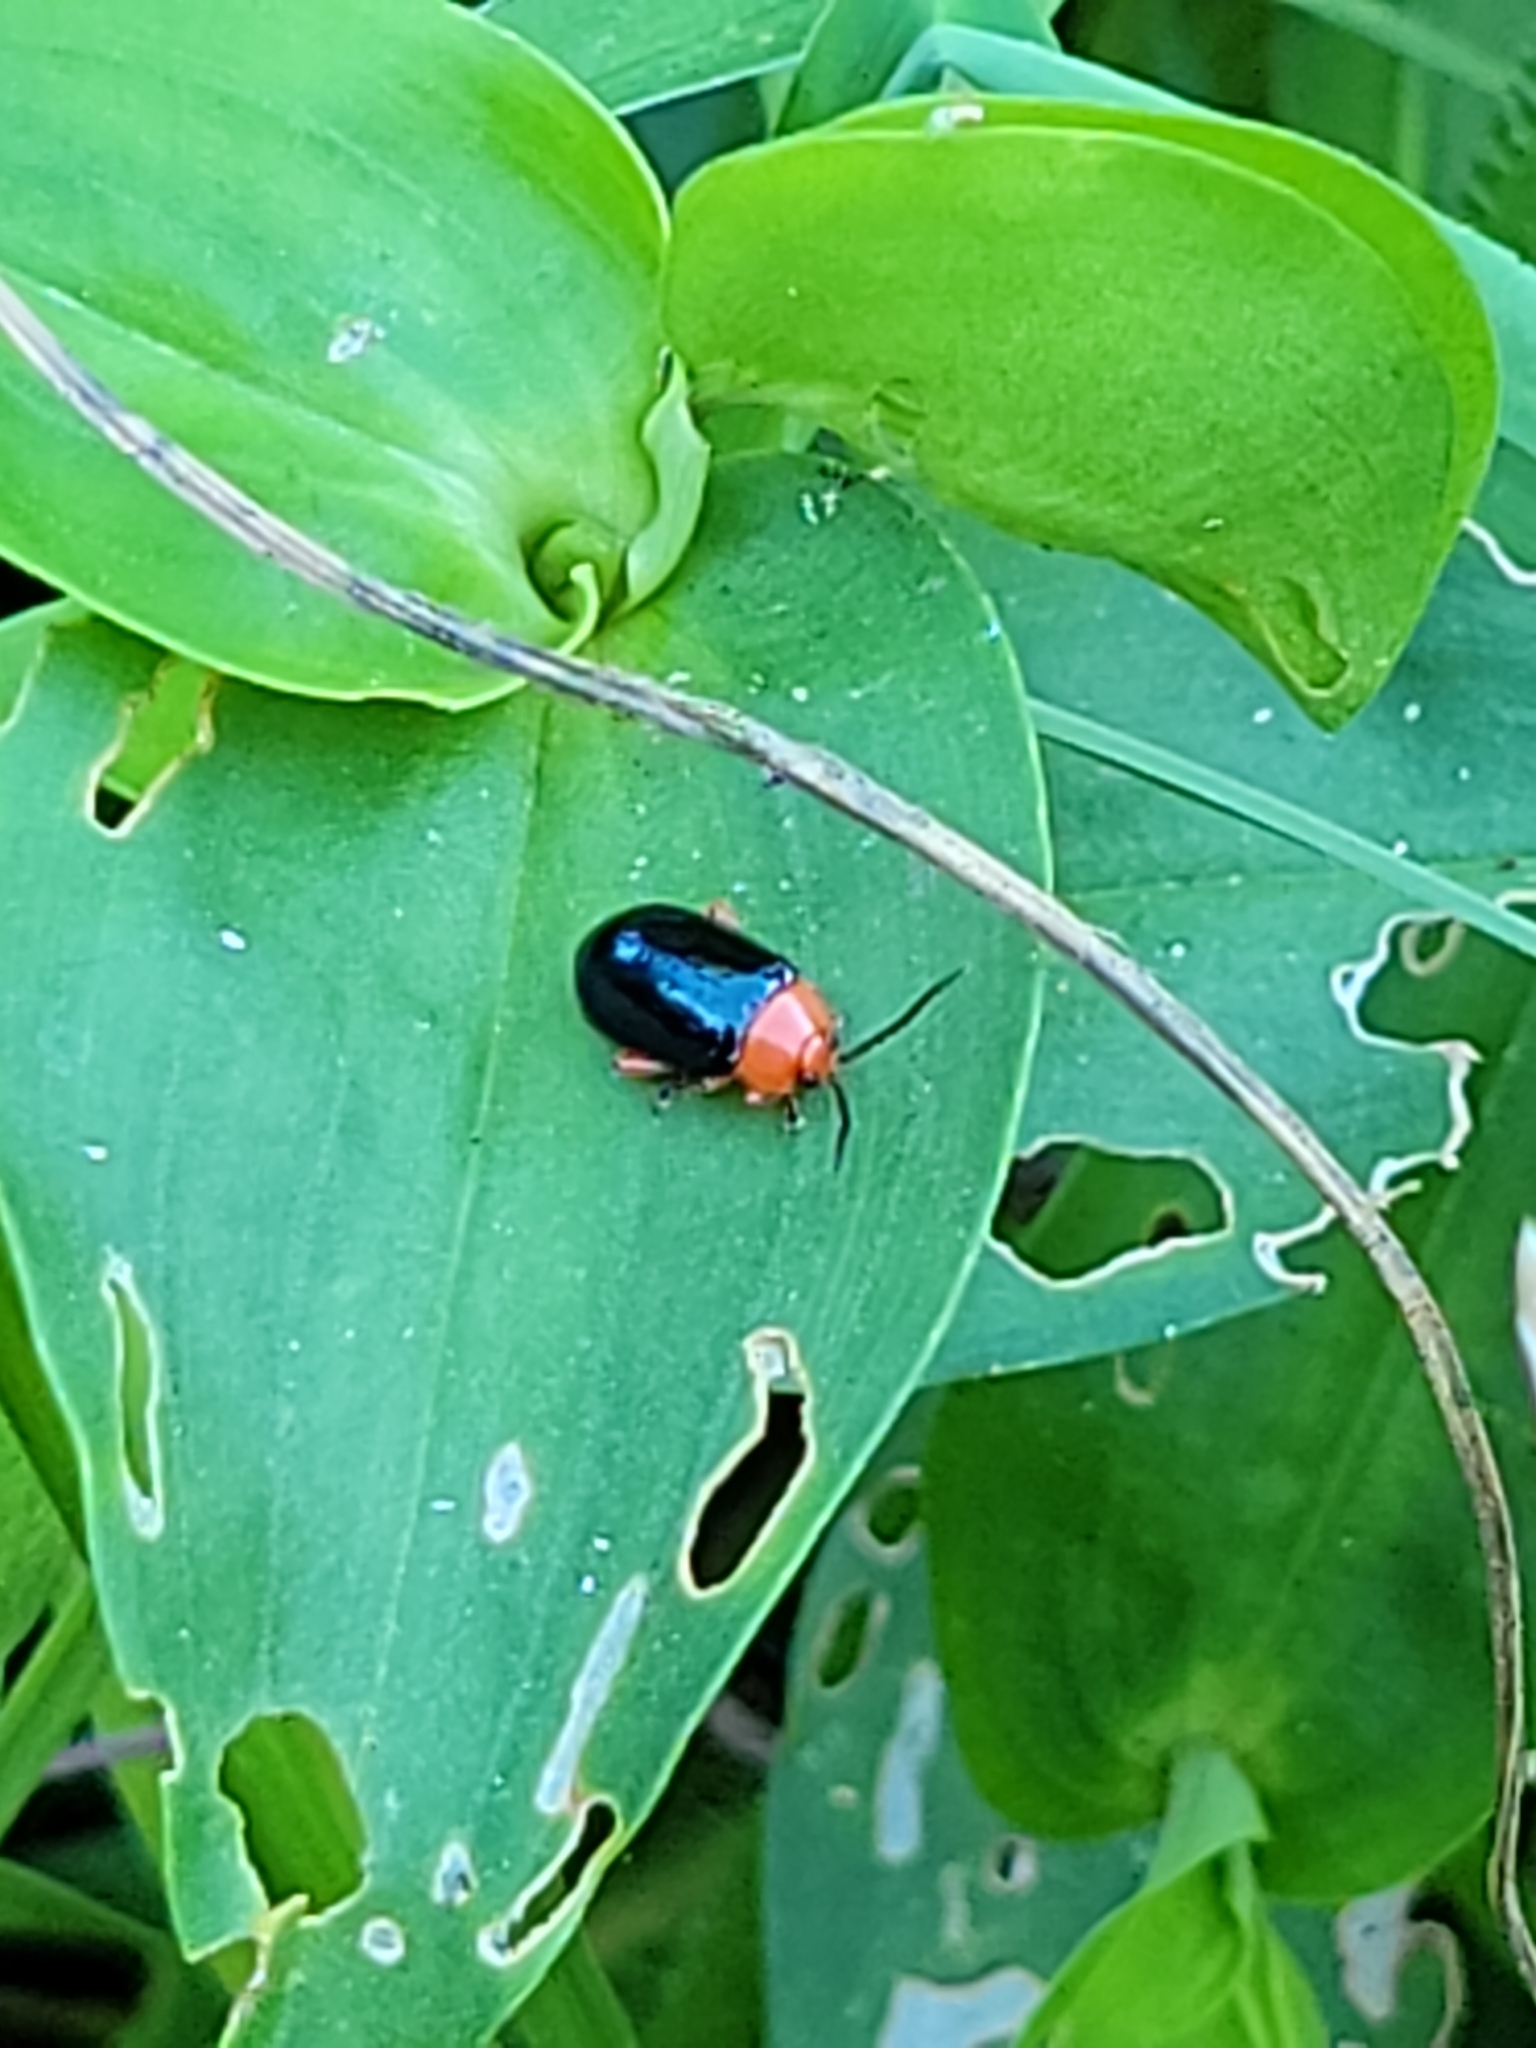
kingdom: Animalia
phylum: Arthropoda
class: Insecta
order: Coleoptera
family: Chrysomelidae
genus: Asphaera
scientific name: Asphaera lustrans
